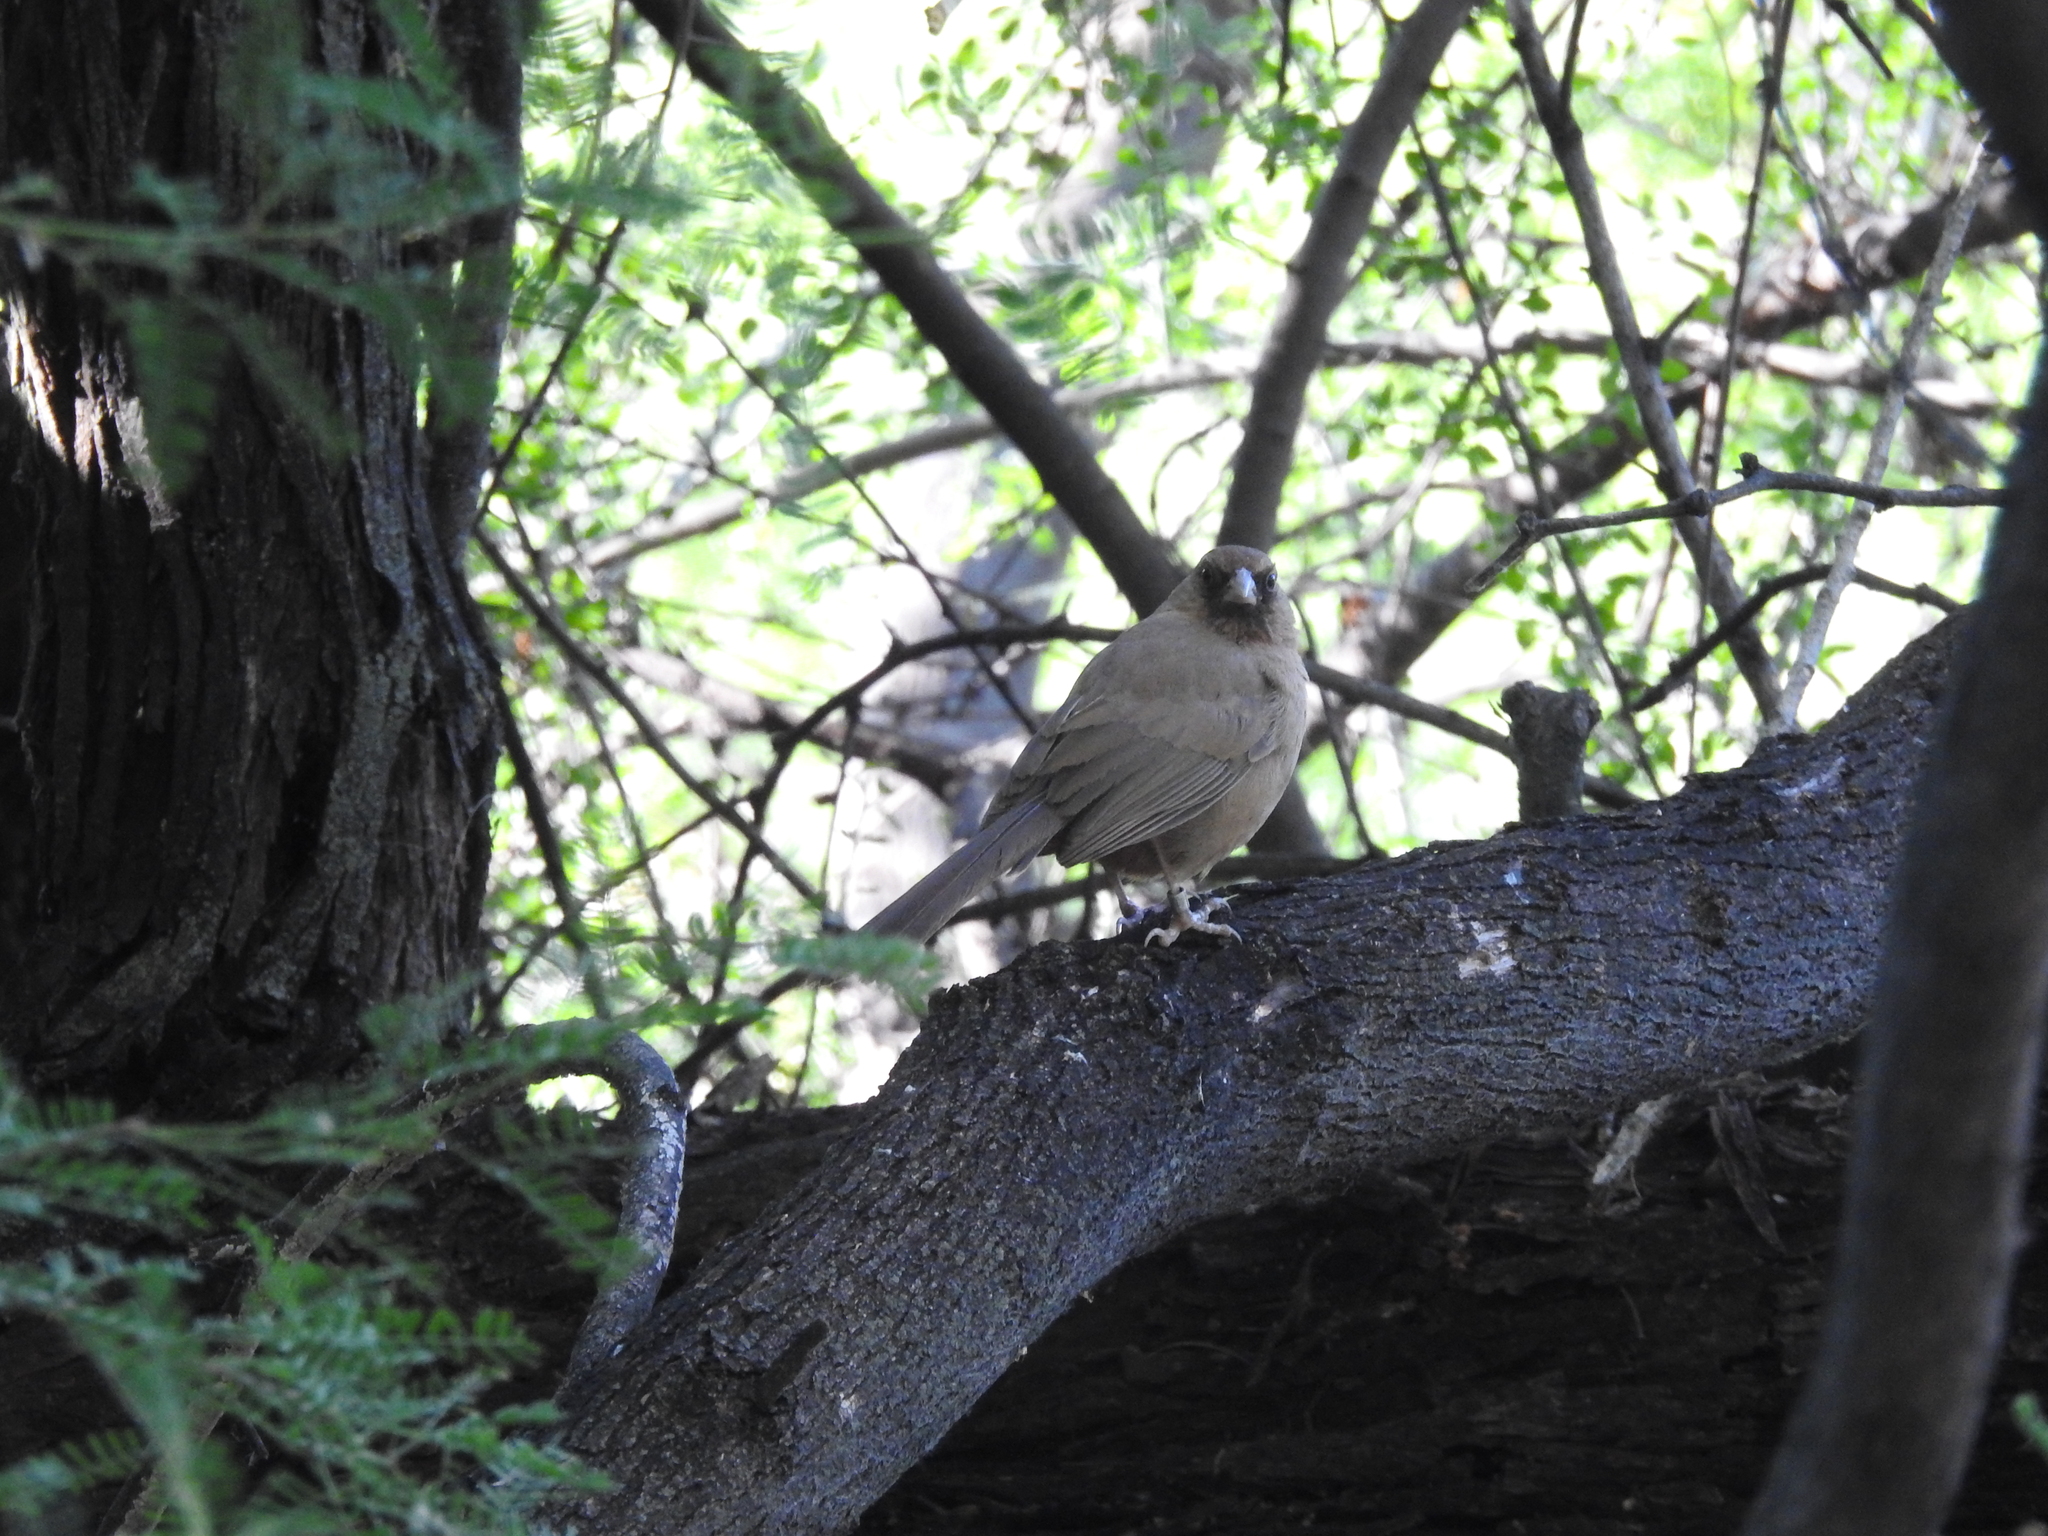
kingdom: Animalia
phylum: Chordata
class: Aves
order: Passeriformes
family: Passerellidae
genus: Melozone
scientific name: Melozone aberti
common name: Abert's towhee
